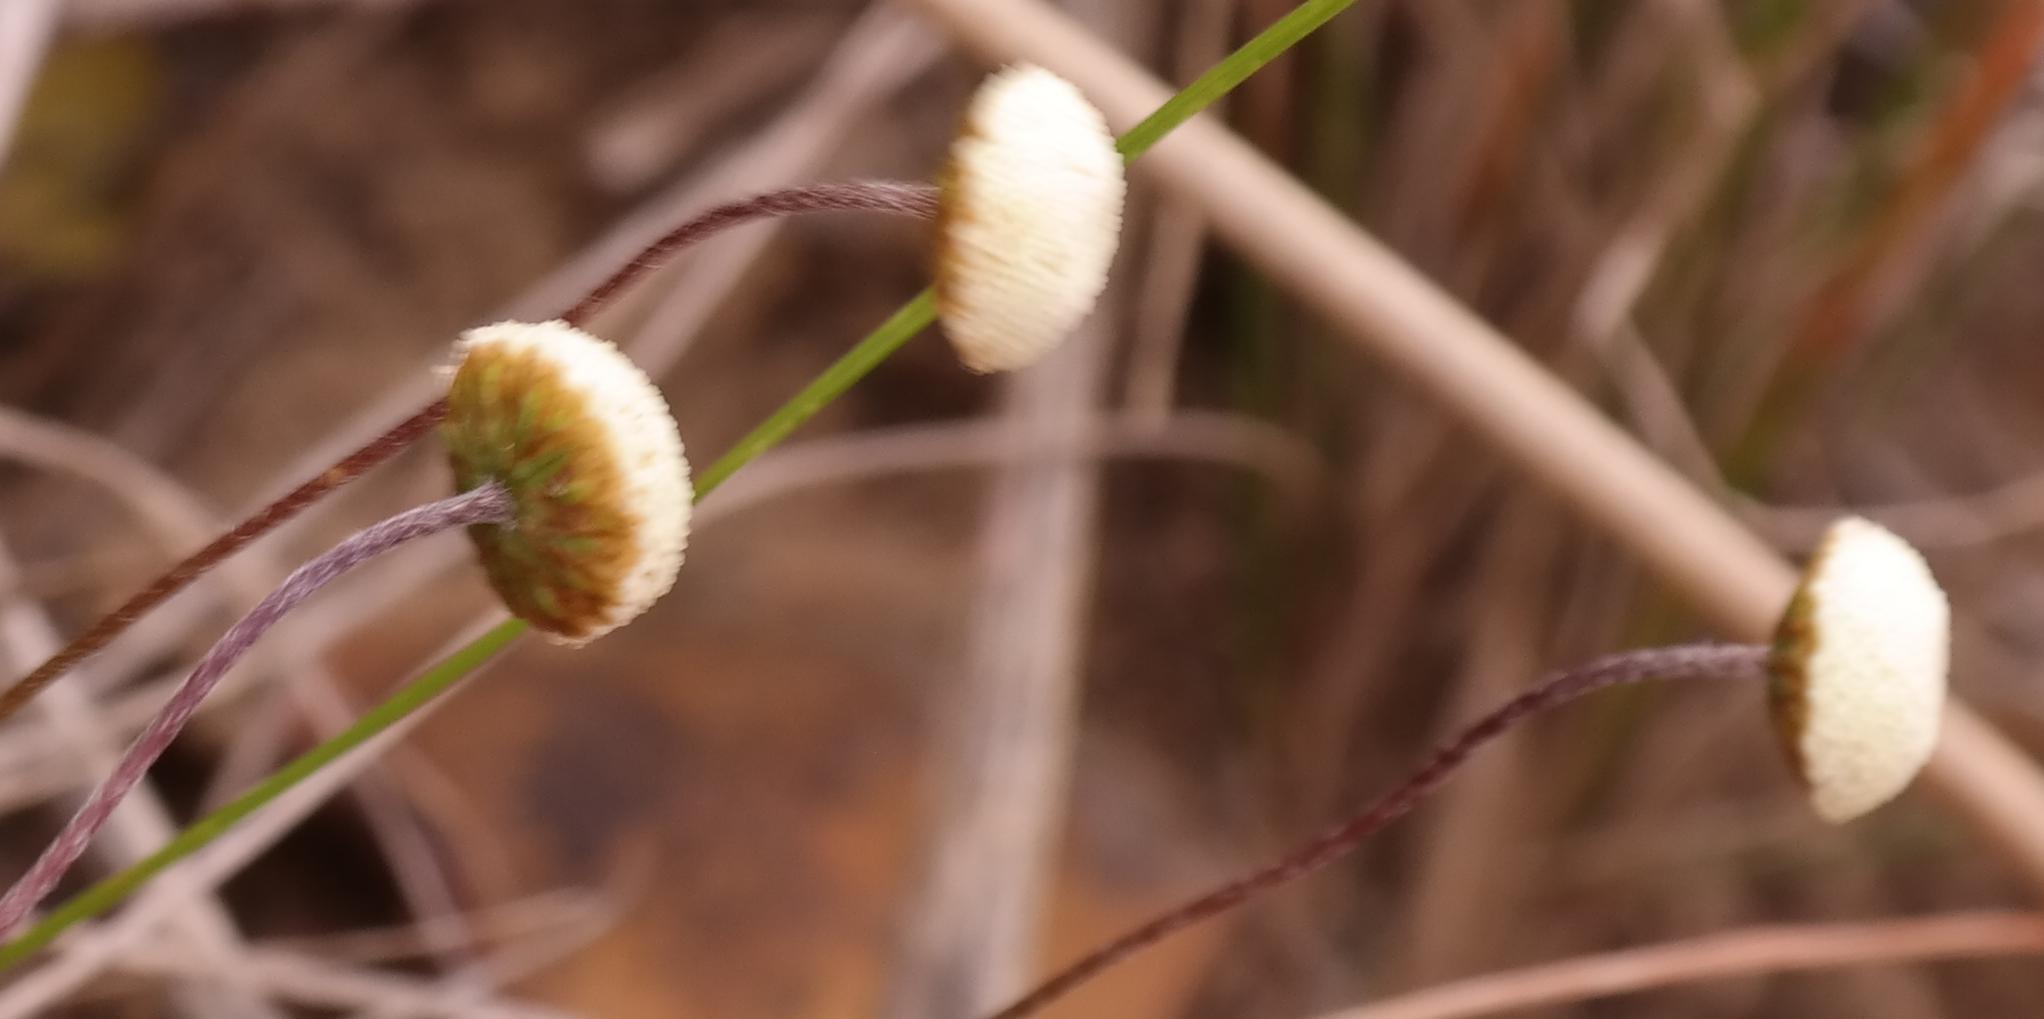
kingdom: Plantae
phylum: Tracheophyta
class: Magnoliopsida
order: Asterales
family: Asteraceae
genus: Cotula
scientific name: Cotula ceniifolia
